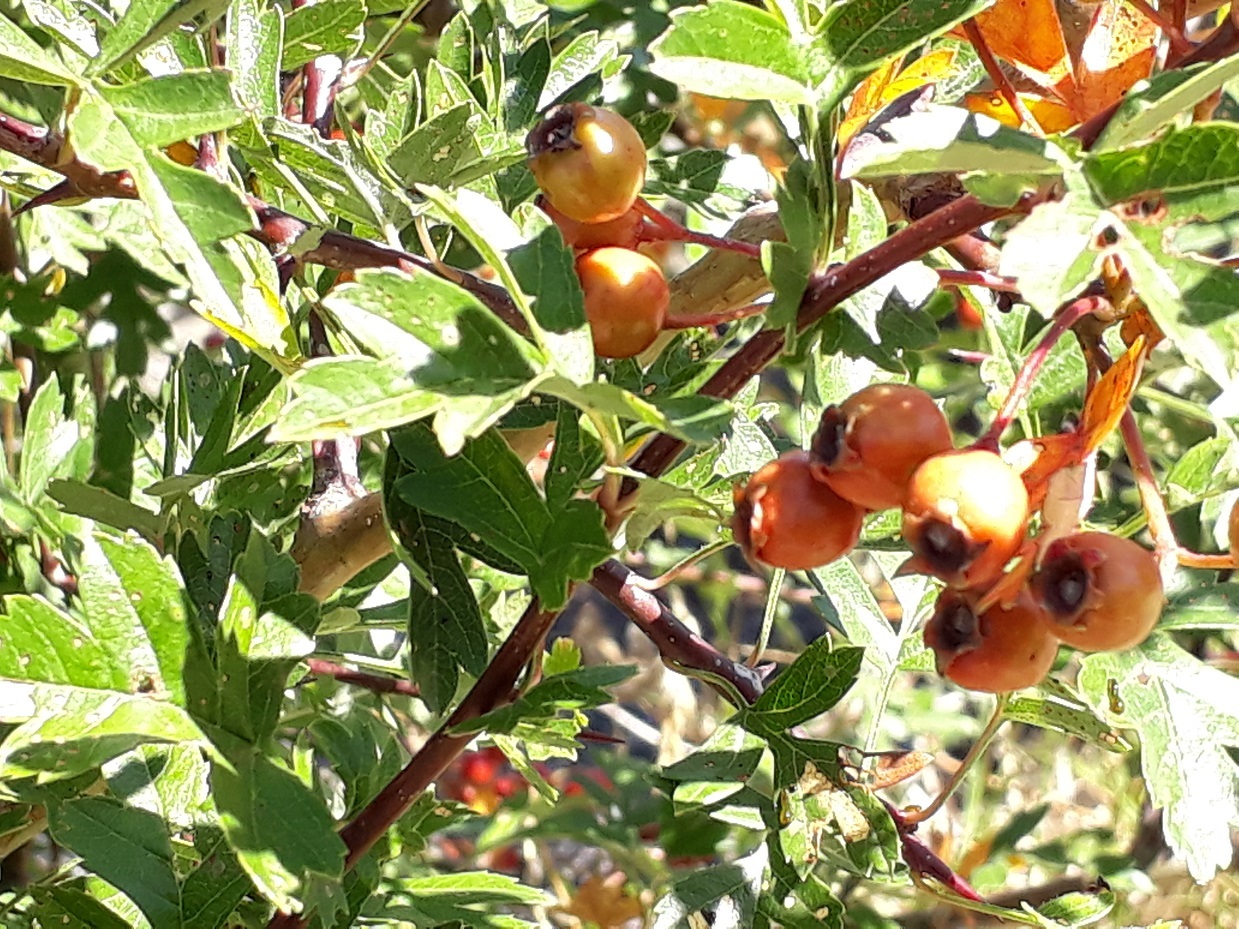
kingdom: Plantae
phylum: Tracheophyta
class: Magnoliopsida
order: Rosales
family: Rosaceae
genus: Crataegus
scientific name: Crataegus monogyna
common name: Hawthorn
